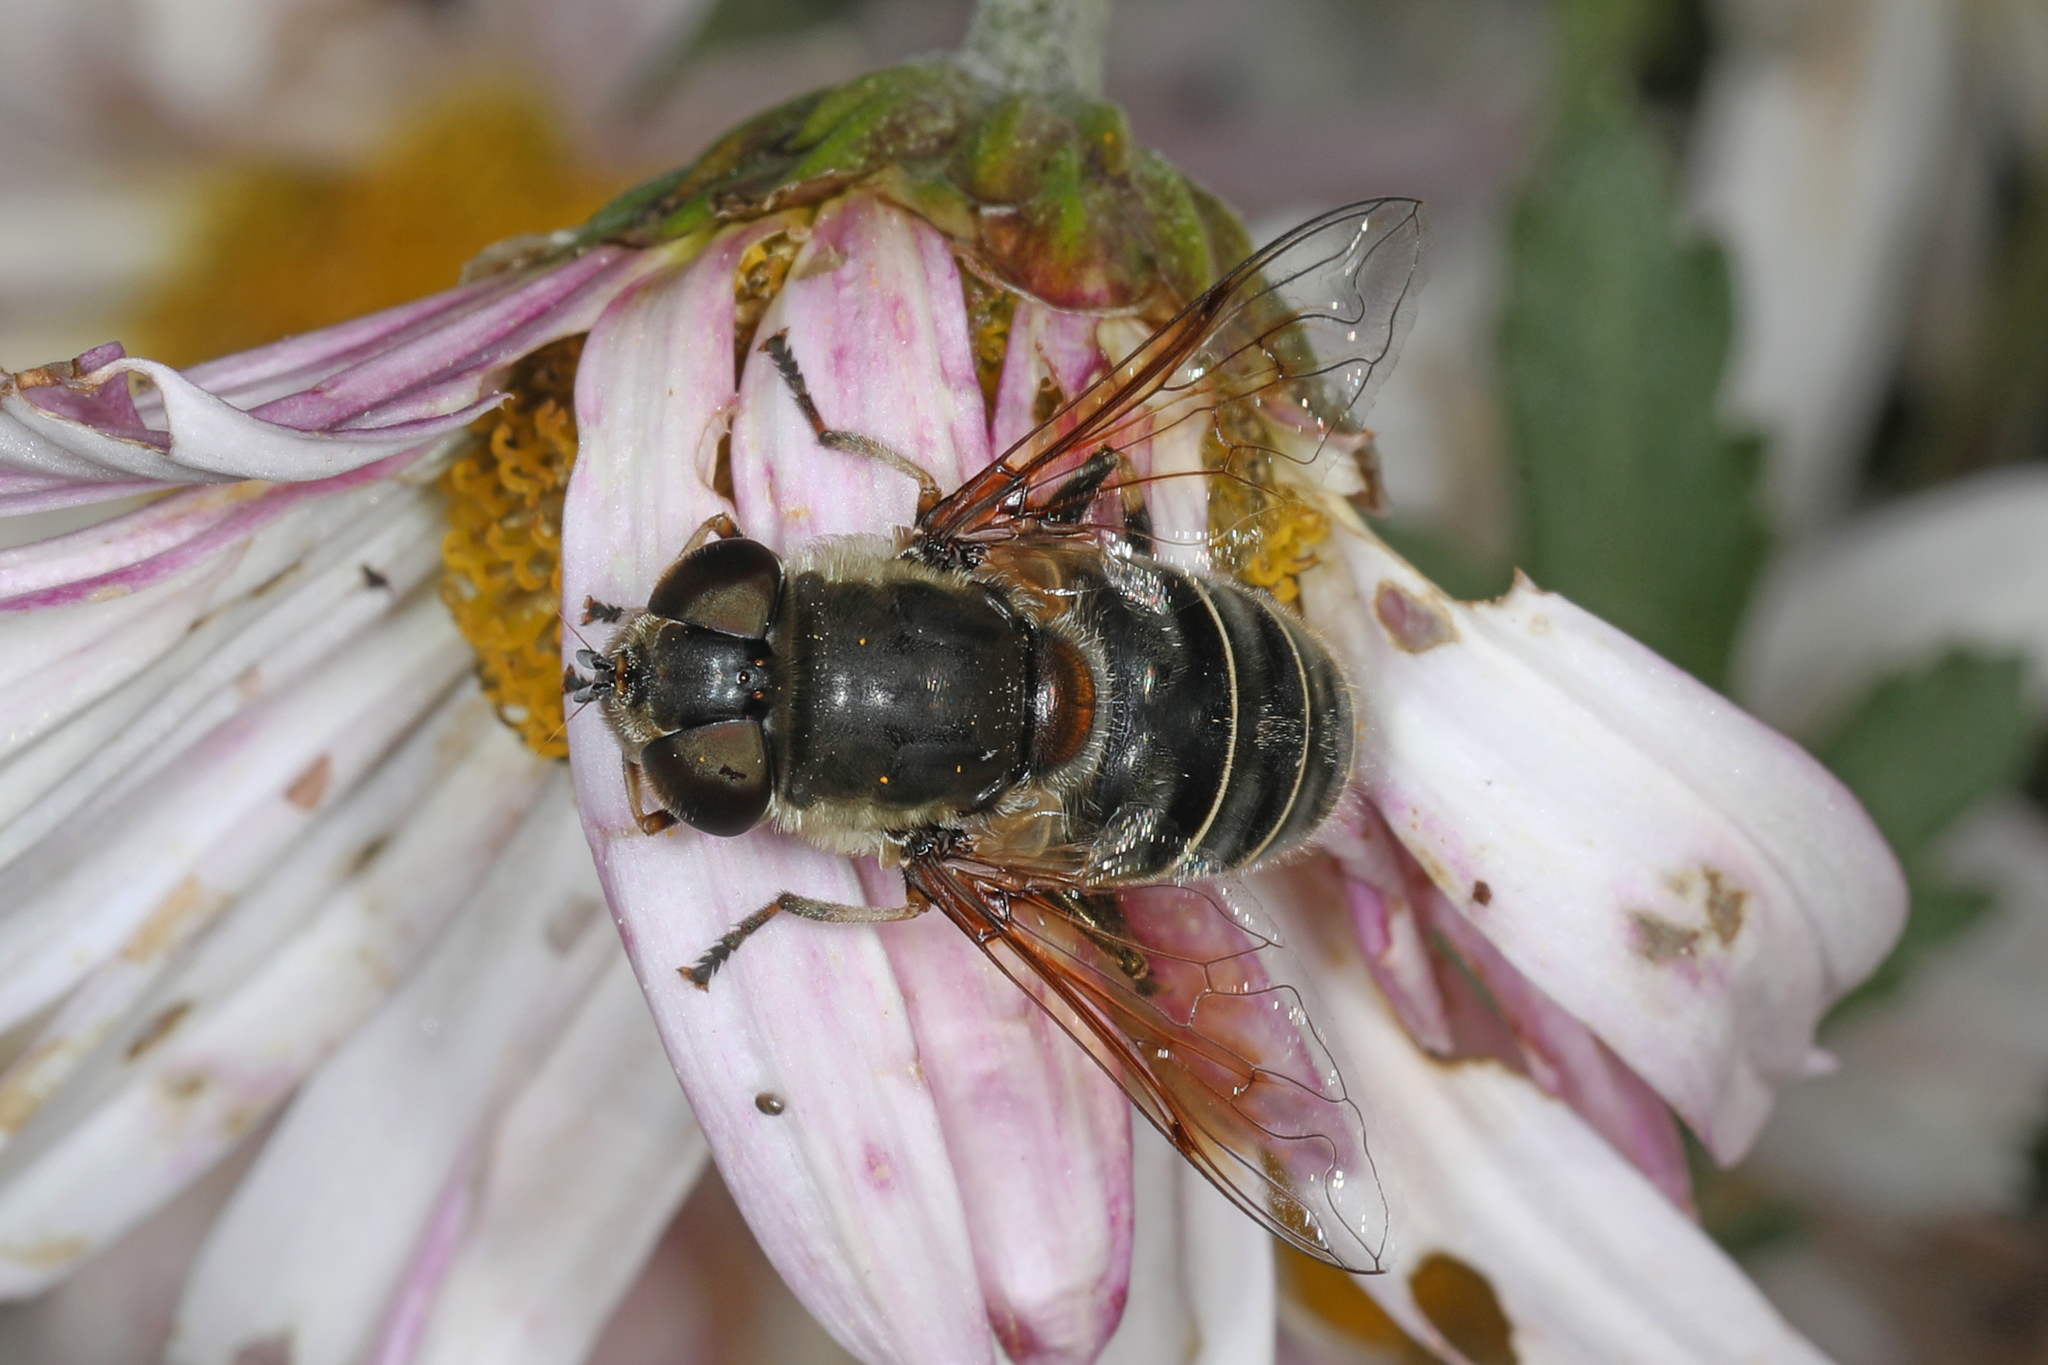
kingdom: Animalia
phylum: Arthropoda
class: Insecta
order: Diptera
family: Syrphidae
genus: Eristalis
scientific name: Eristalis dimidiata
